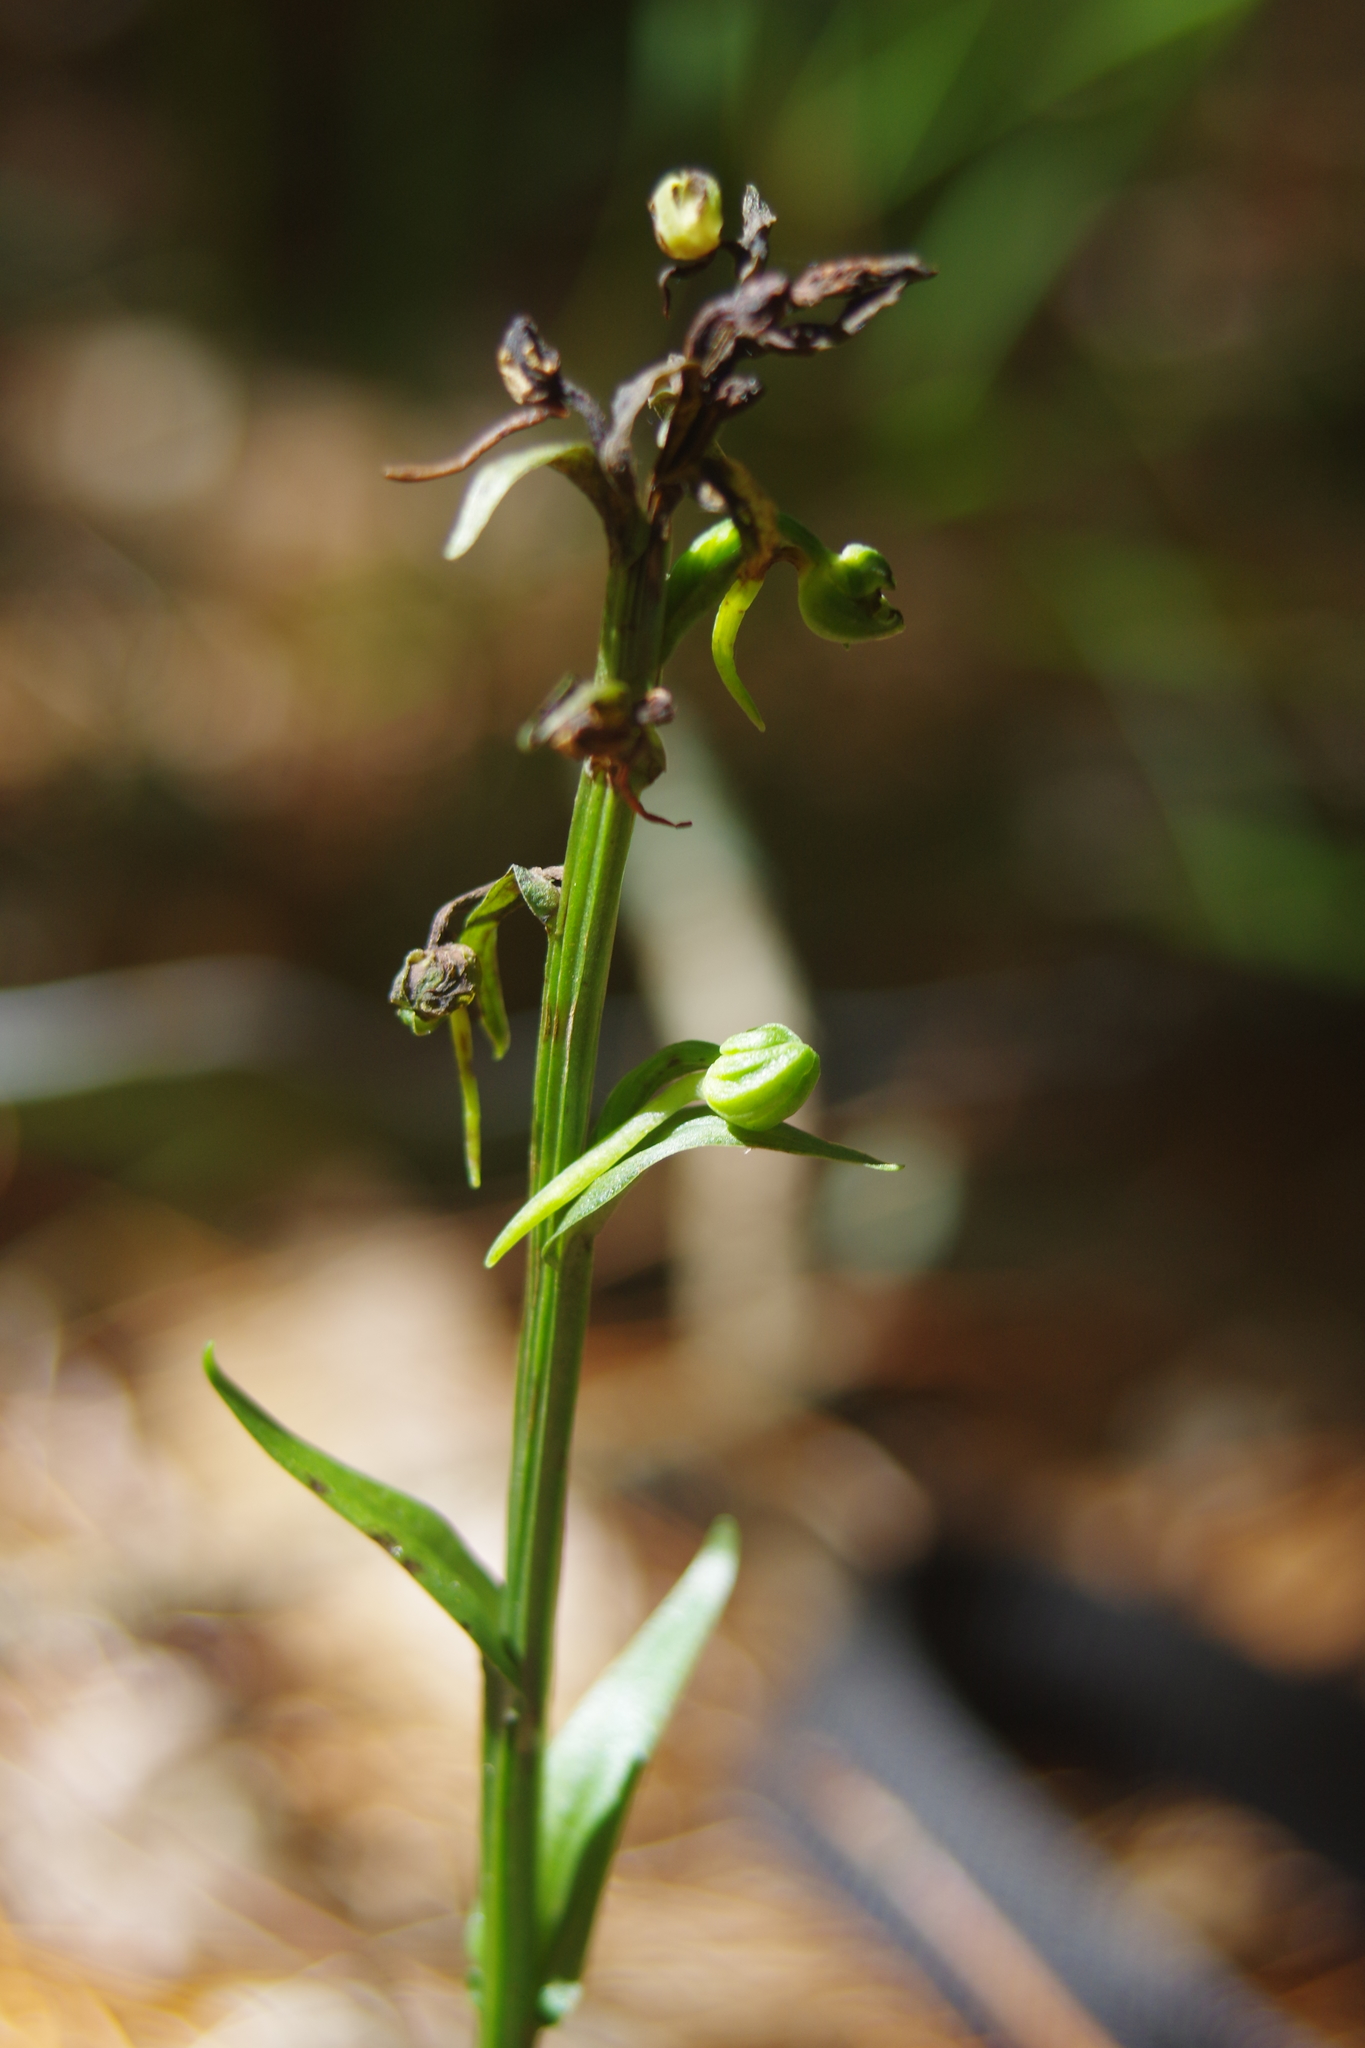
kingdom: Plantae
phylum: Tracheophyta
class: Liliopsida
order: Asparagales
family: Orchidaceae
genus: Platanthera
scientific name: Platanthera minor
